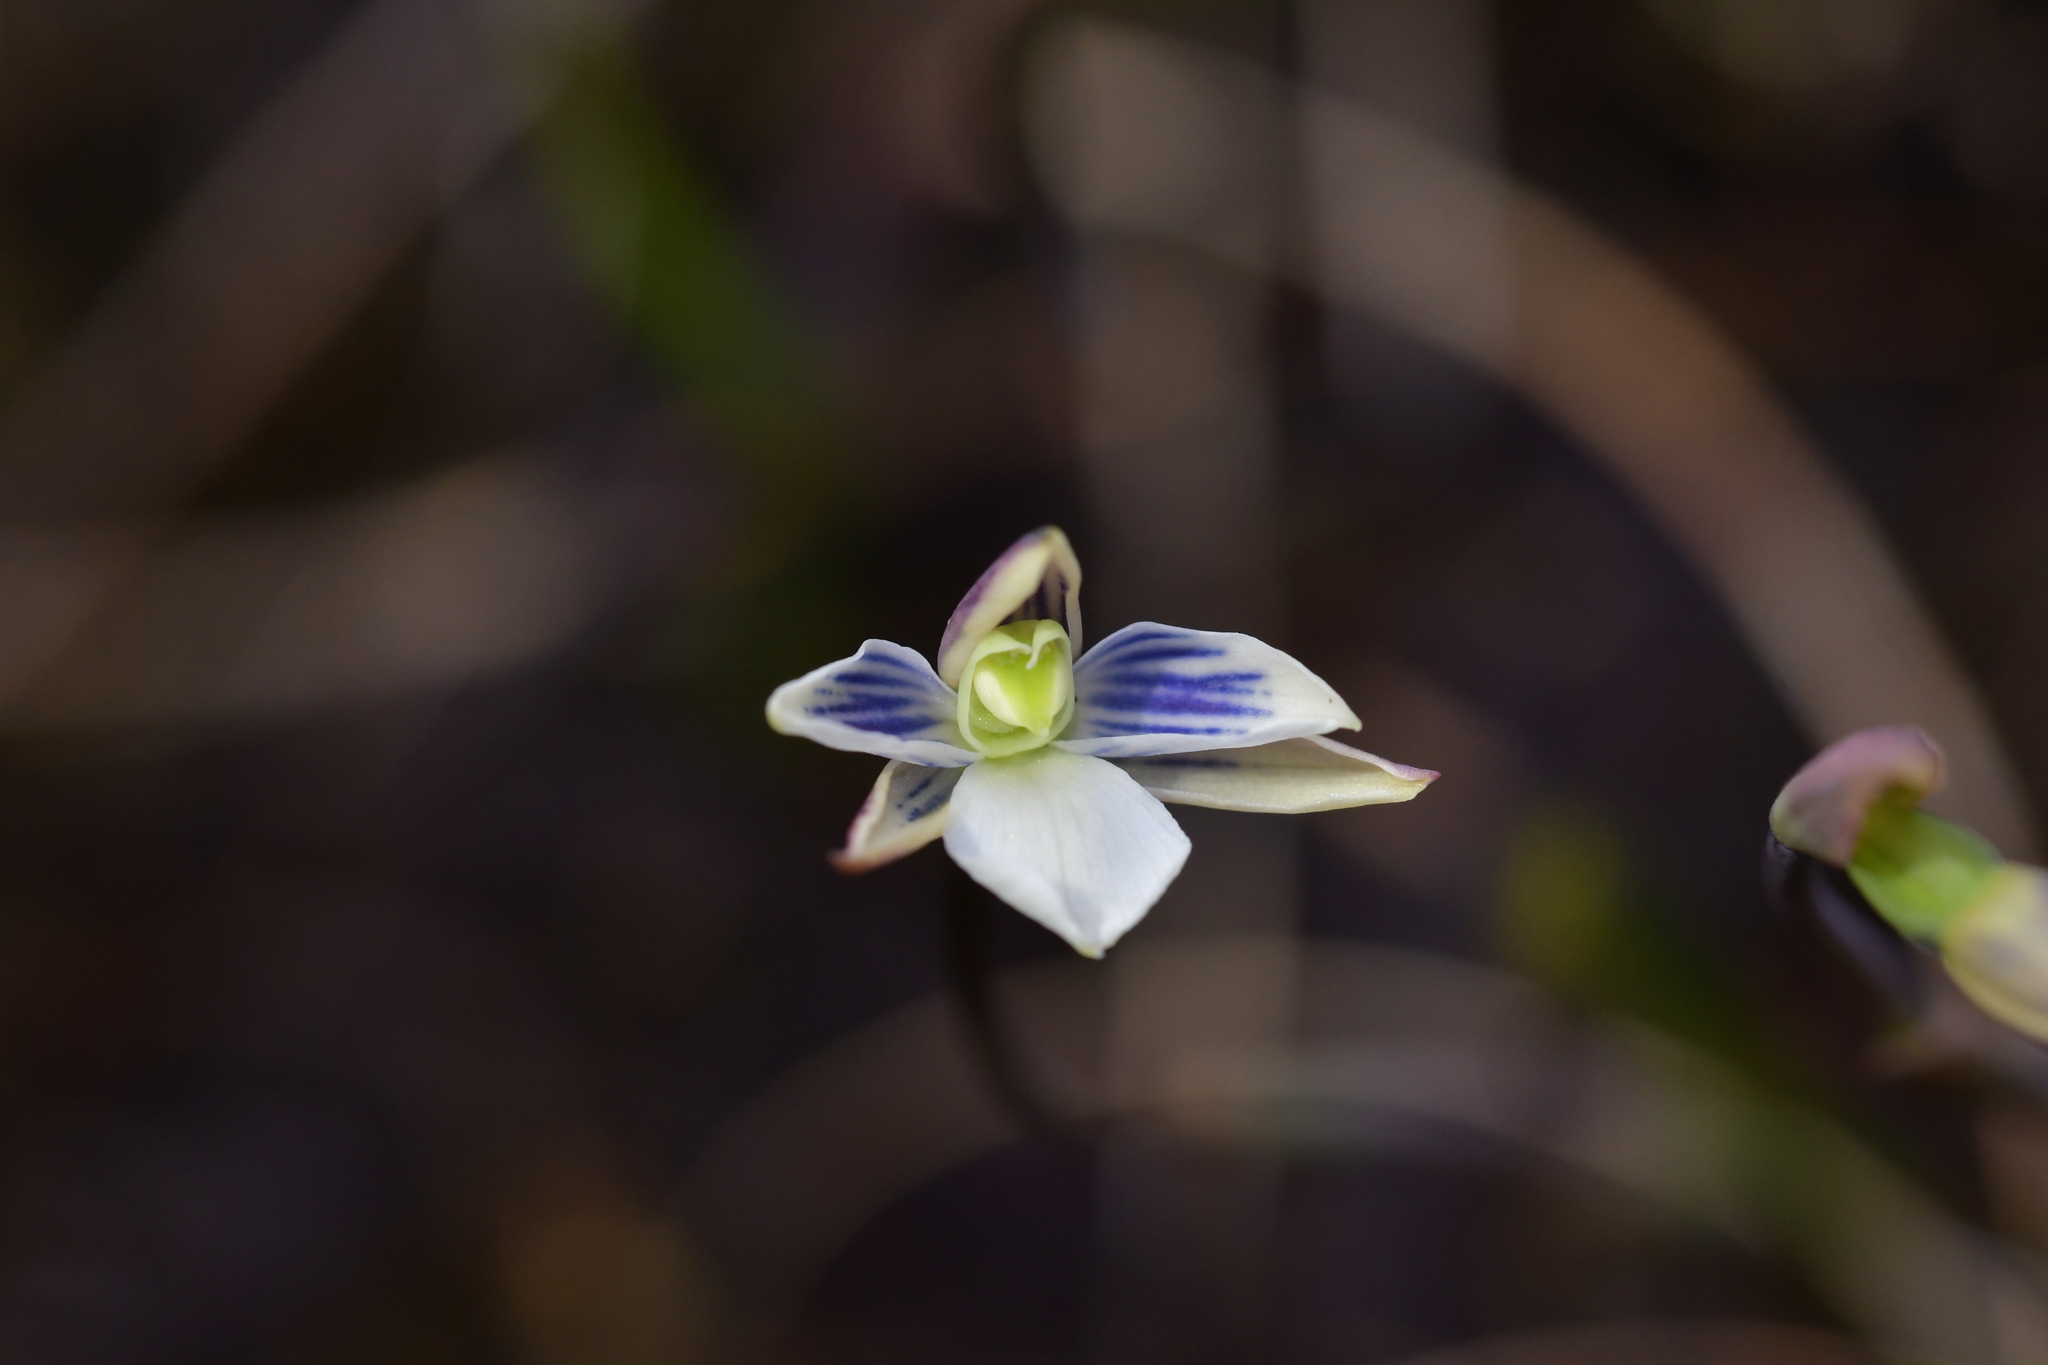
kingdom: Plantae
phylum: Tracheophyta
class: Liliopsida
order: Asparagales
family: Orchidaceae
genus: Thelymitra
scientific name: Thelymitra cyanea
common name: Blue sun-orchid
